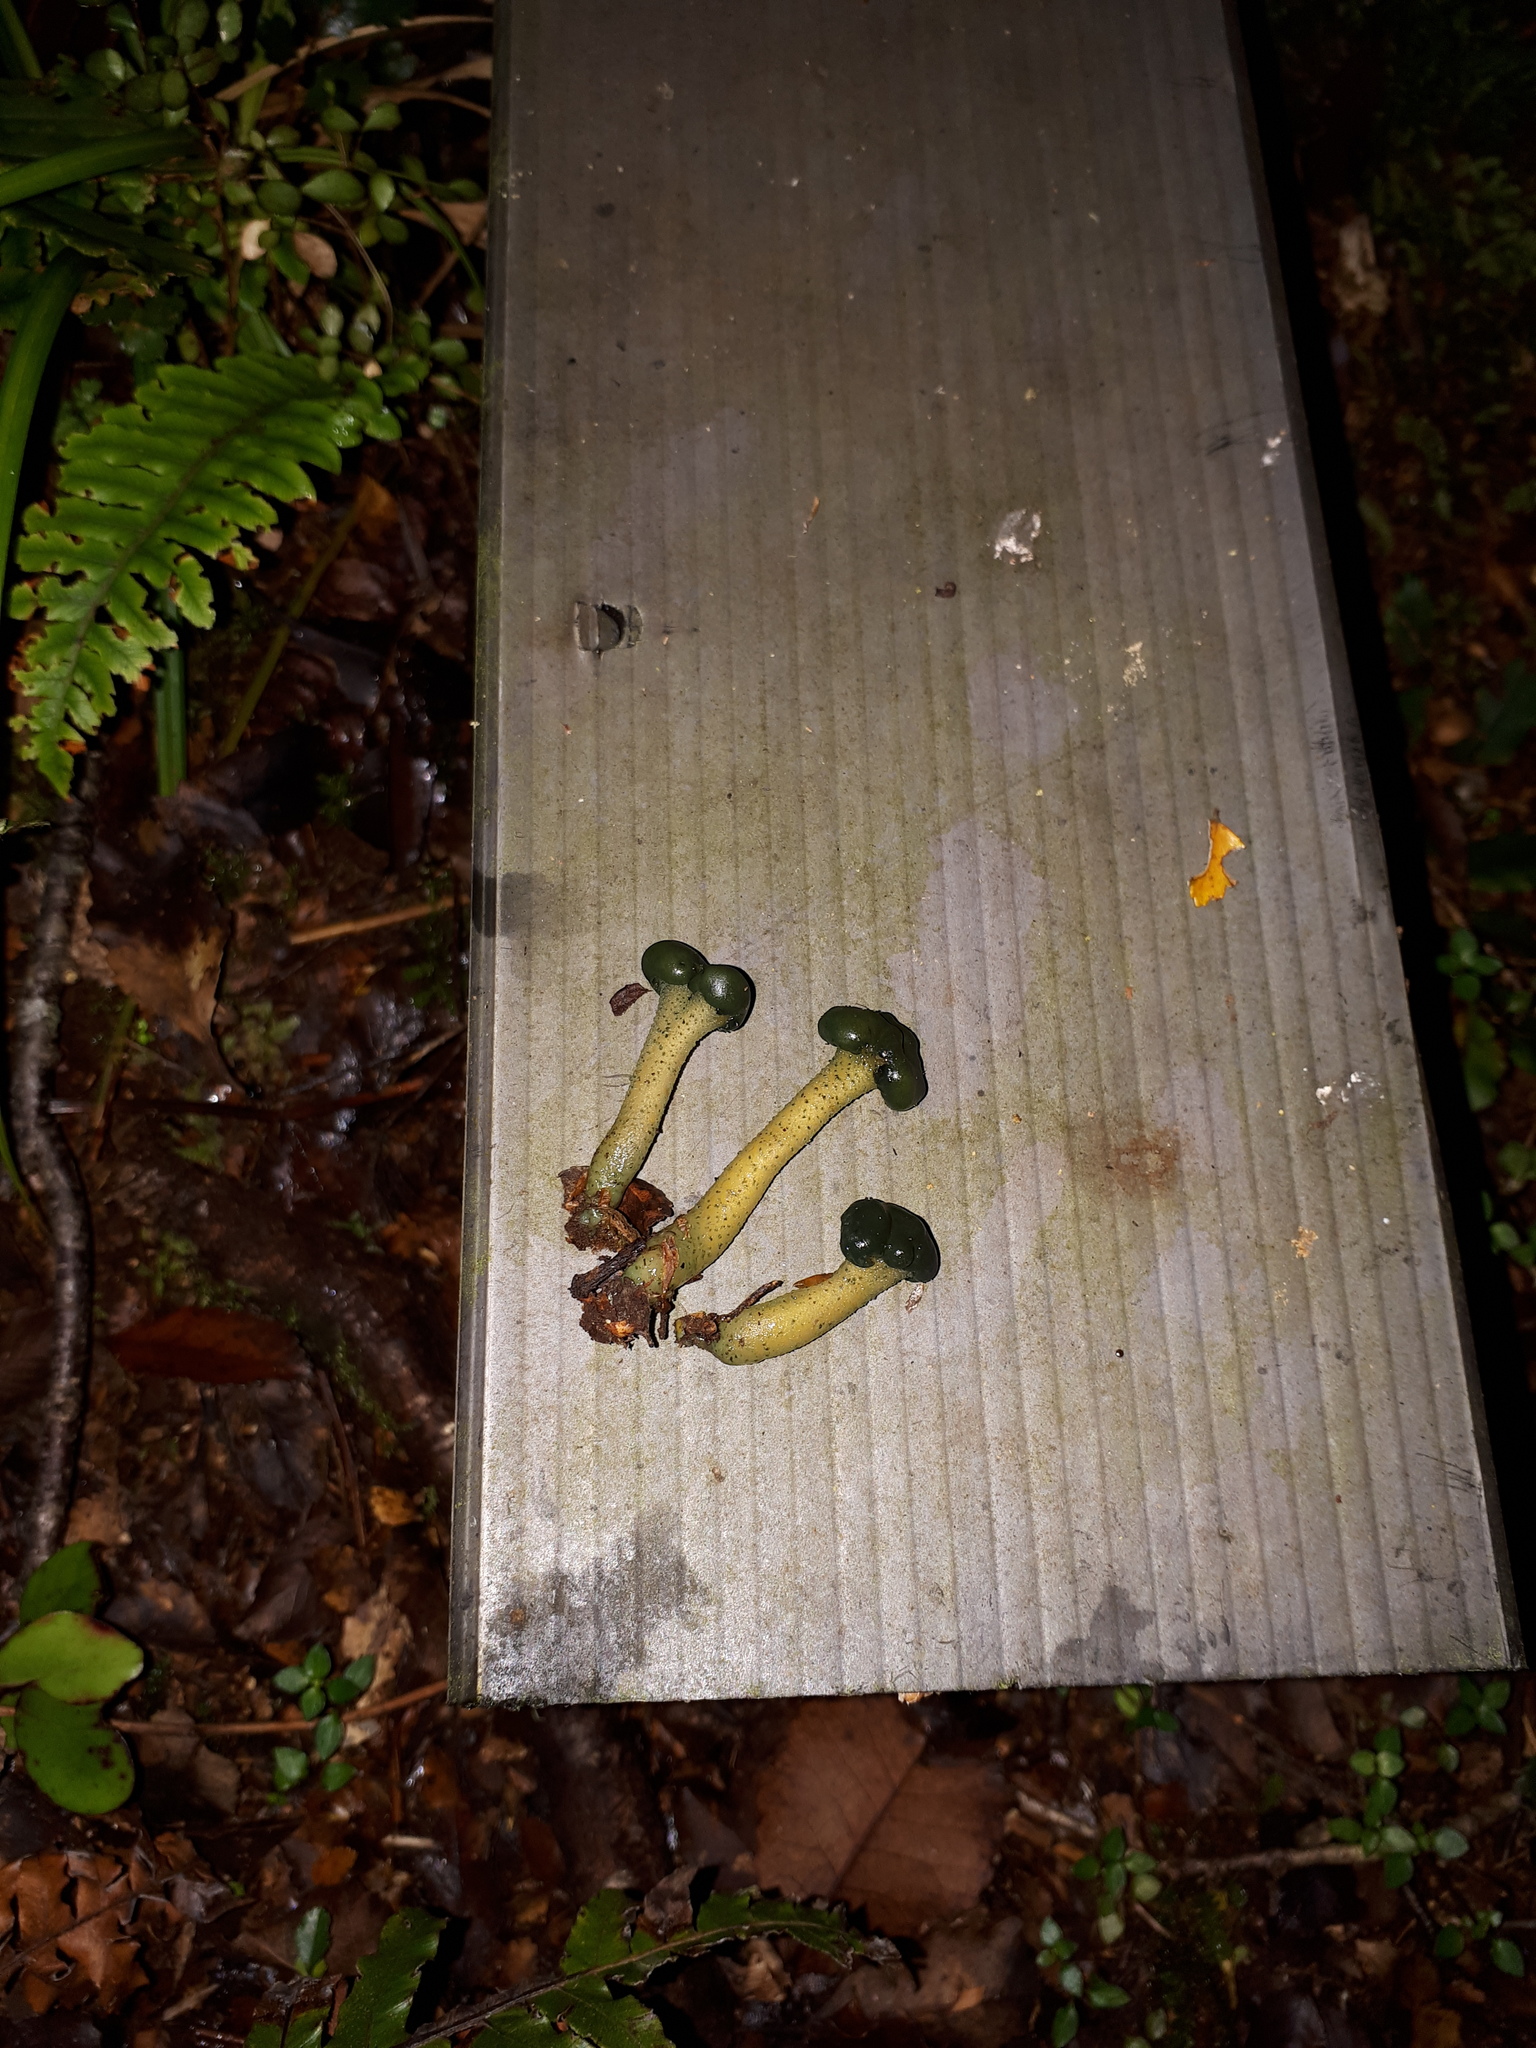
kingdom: Fungi
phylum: Ascomycota
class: Leotiomycetes
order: Leotiales
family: Leotiaceae
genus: Leotia
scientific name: Leotia lubrica
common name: Jellybaby
